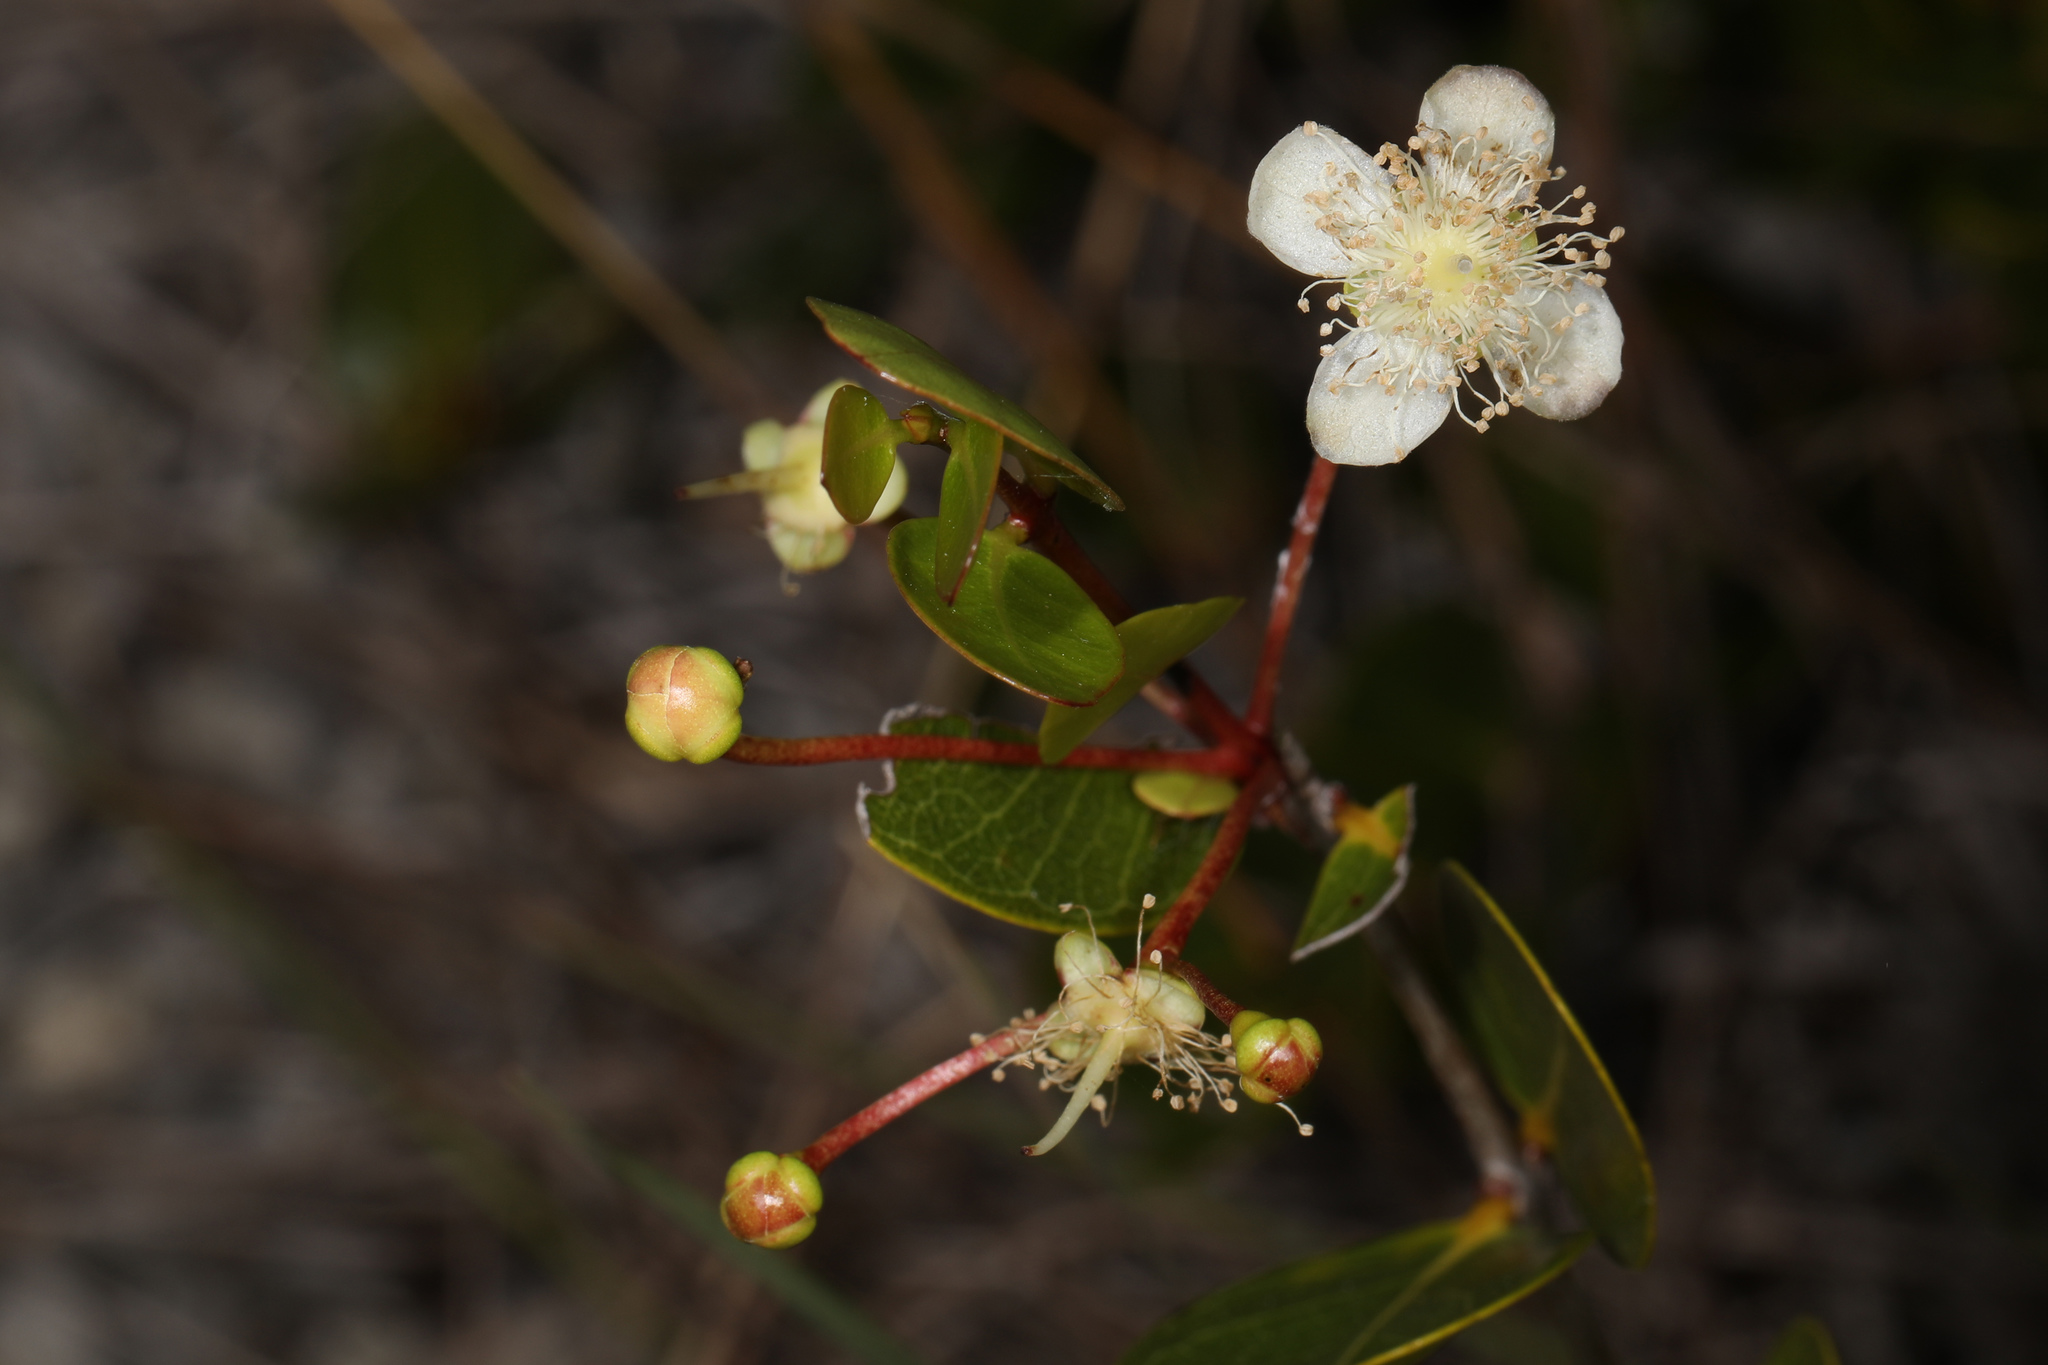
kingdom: Plantae
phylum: Tracheophyta
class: Magnoliopsida
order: Myrtales
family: Myrtaceae
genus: Mosiera
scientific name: Mosiera longipes
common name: Bahama stopper
